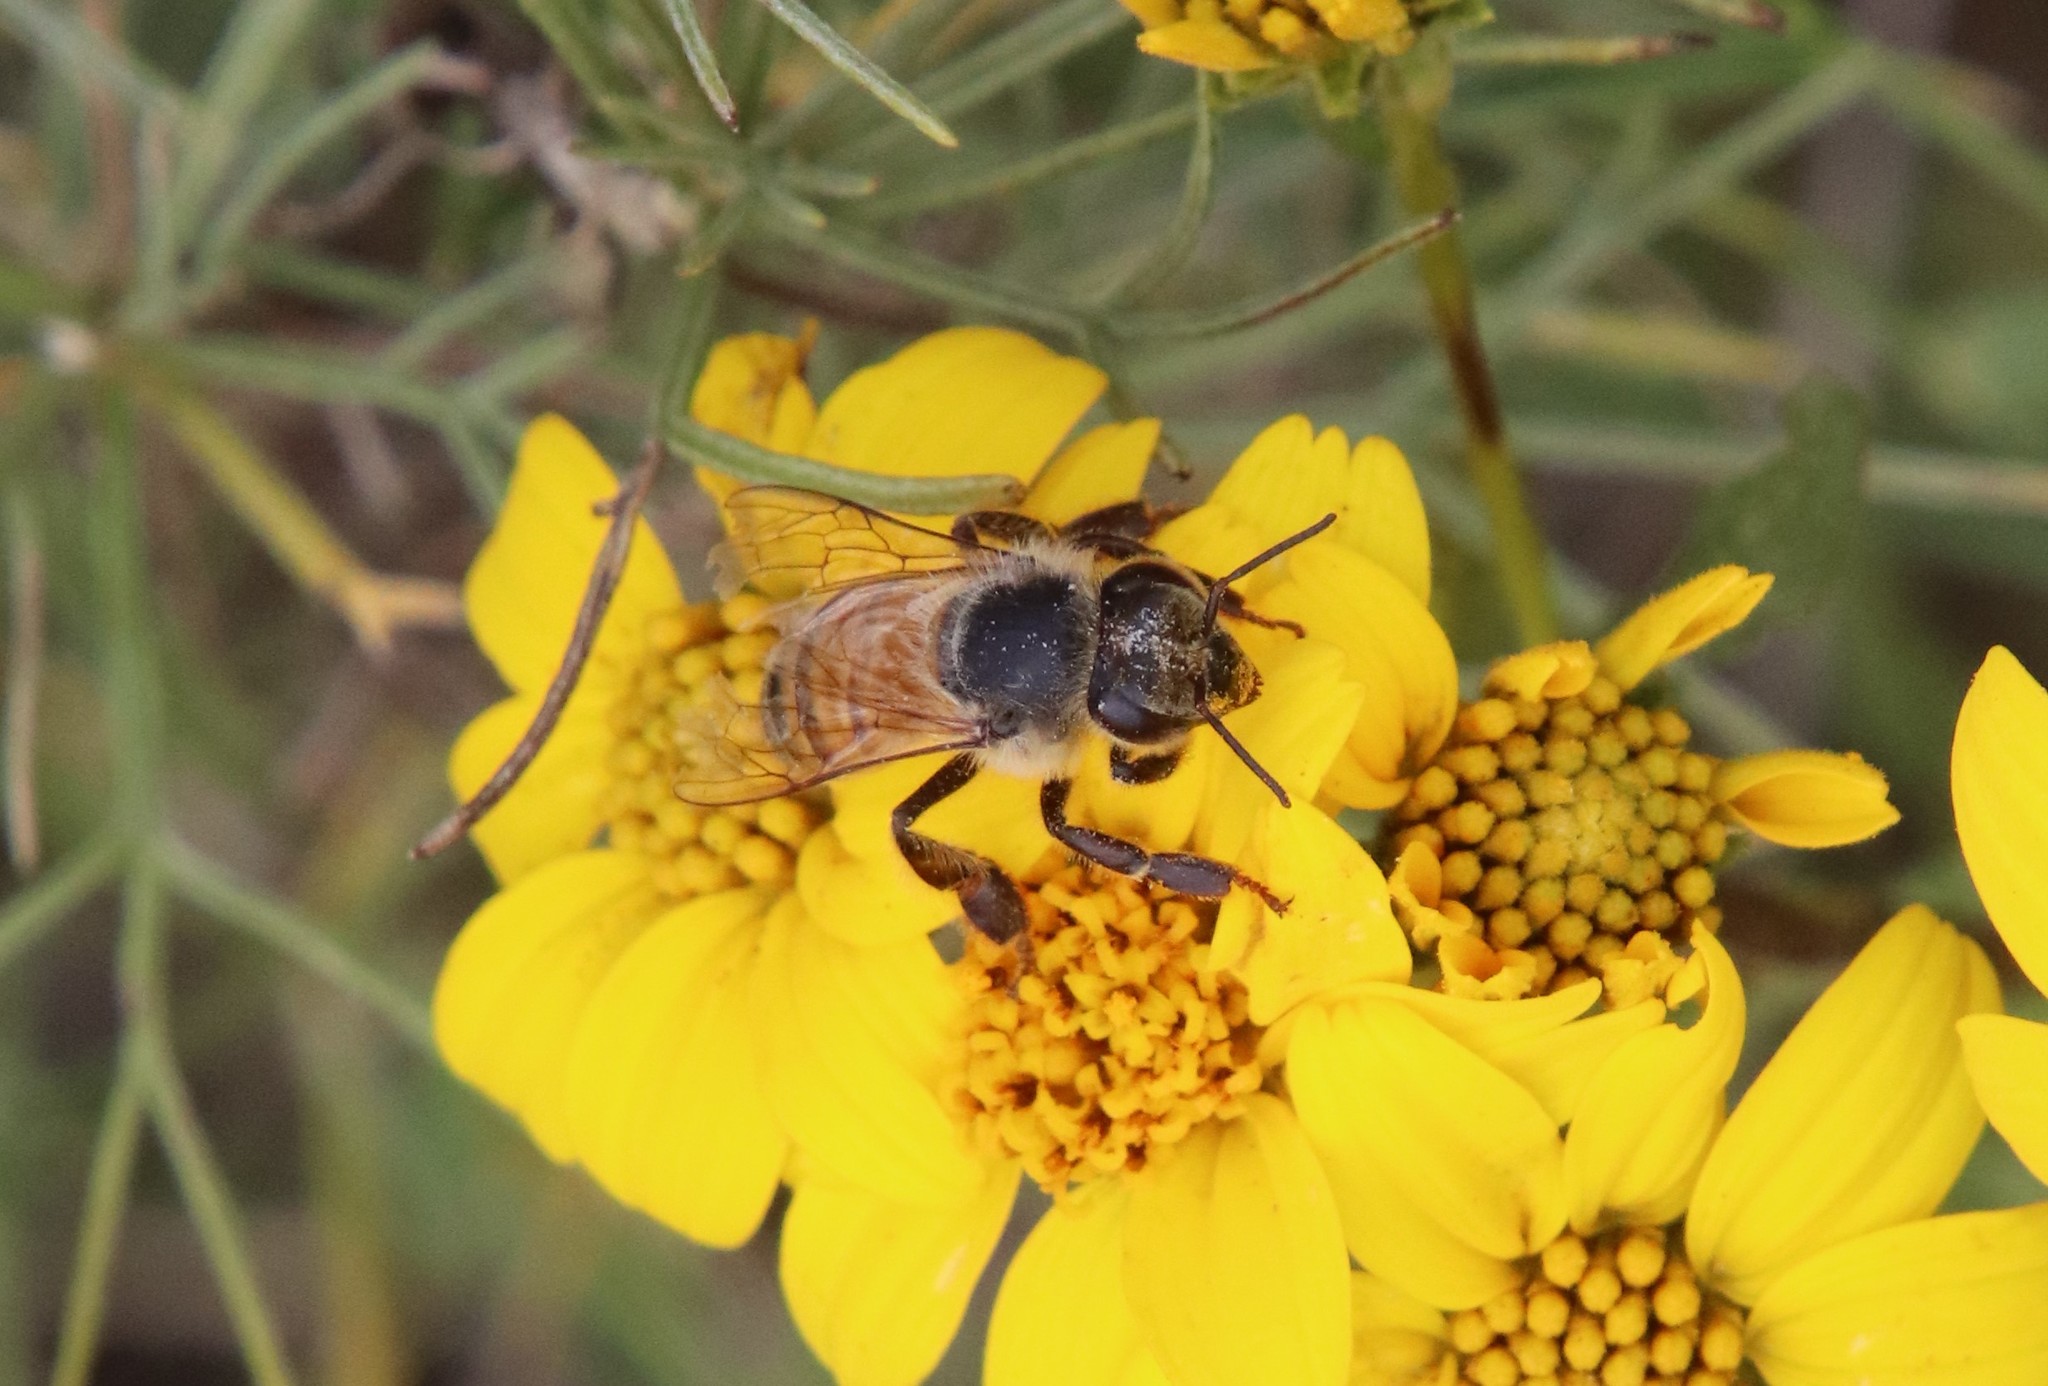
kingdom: Animalia
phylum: Arthropoda
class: Insecta
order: Hymenoptera
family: Apidae
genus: Apis
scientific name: Apis mellifera
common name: Honey bee
